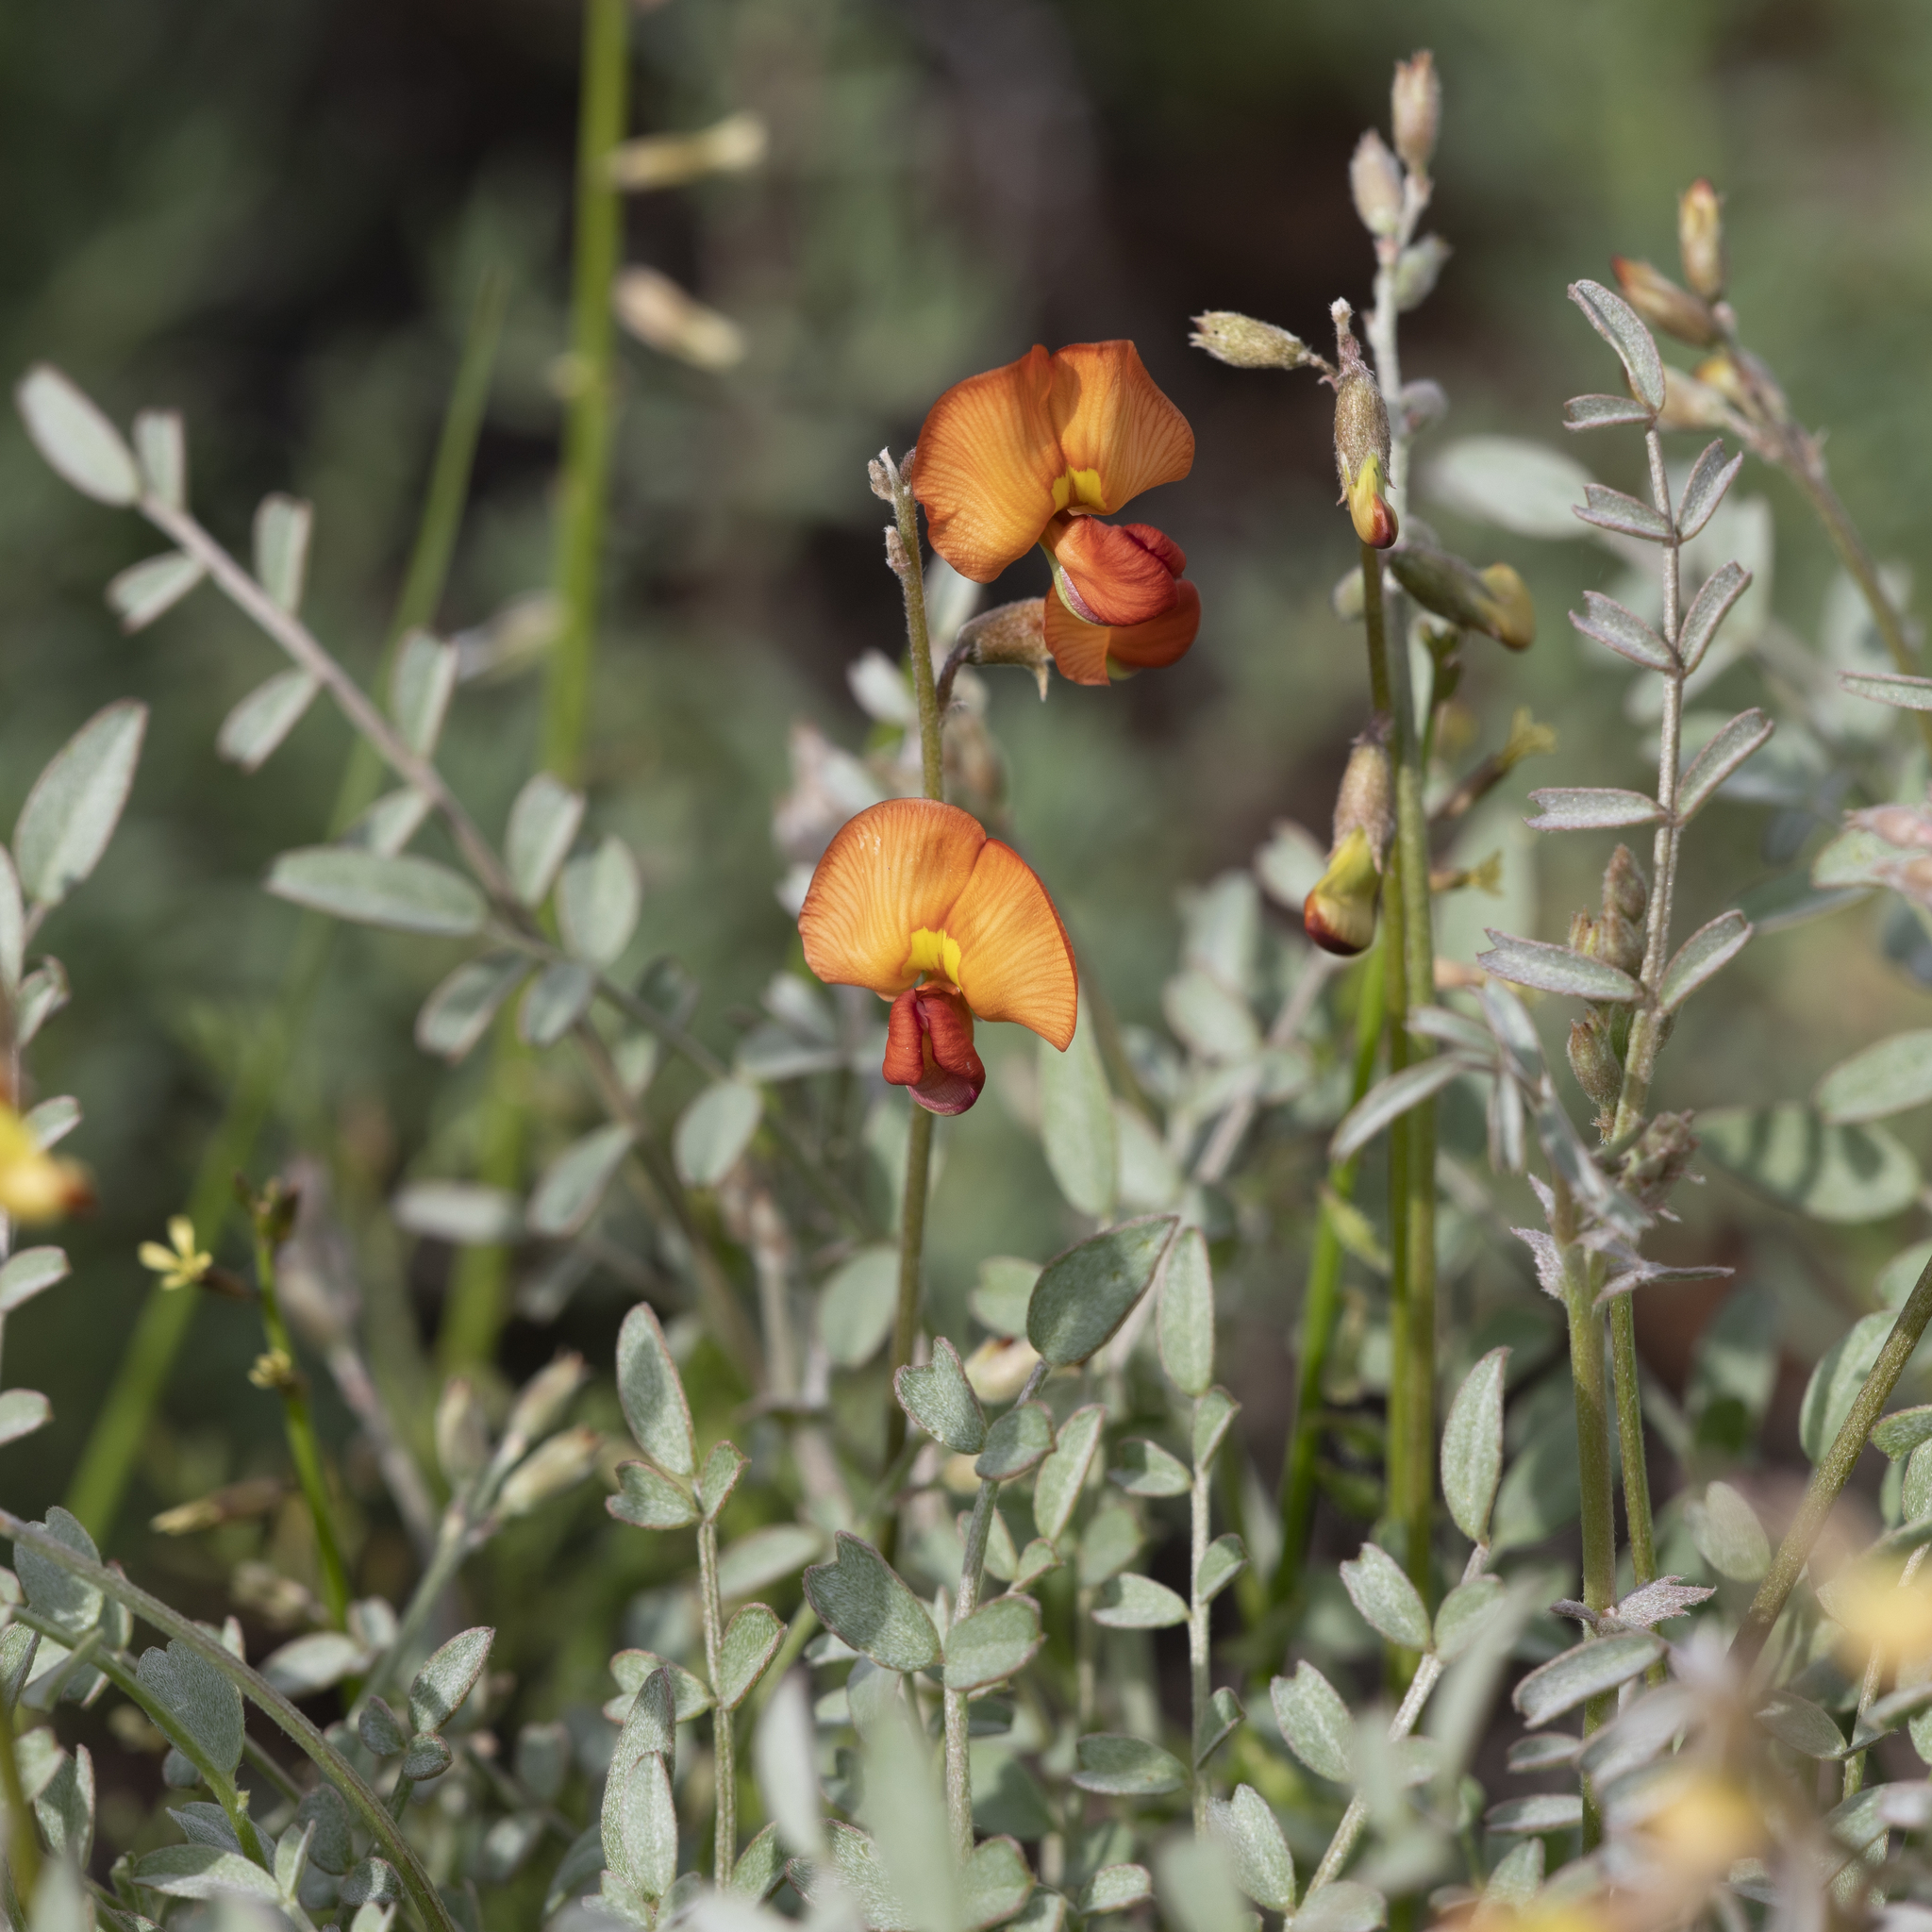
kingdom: Plantae
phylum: Tracheophyta
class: Magnoliopsida
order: Fabales
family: Fabaceae
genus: Swainsona
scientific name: Swainsona stipularis
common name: Orange darling-pea
